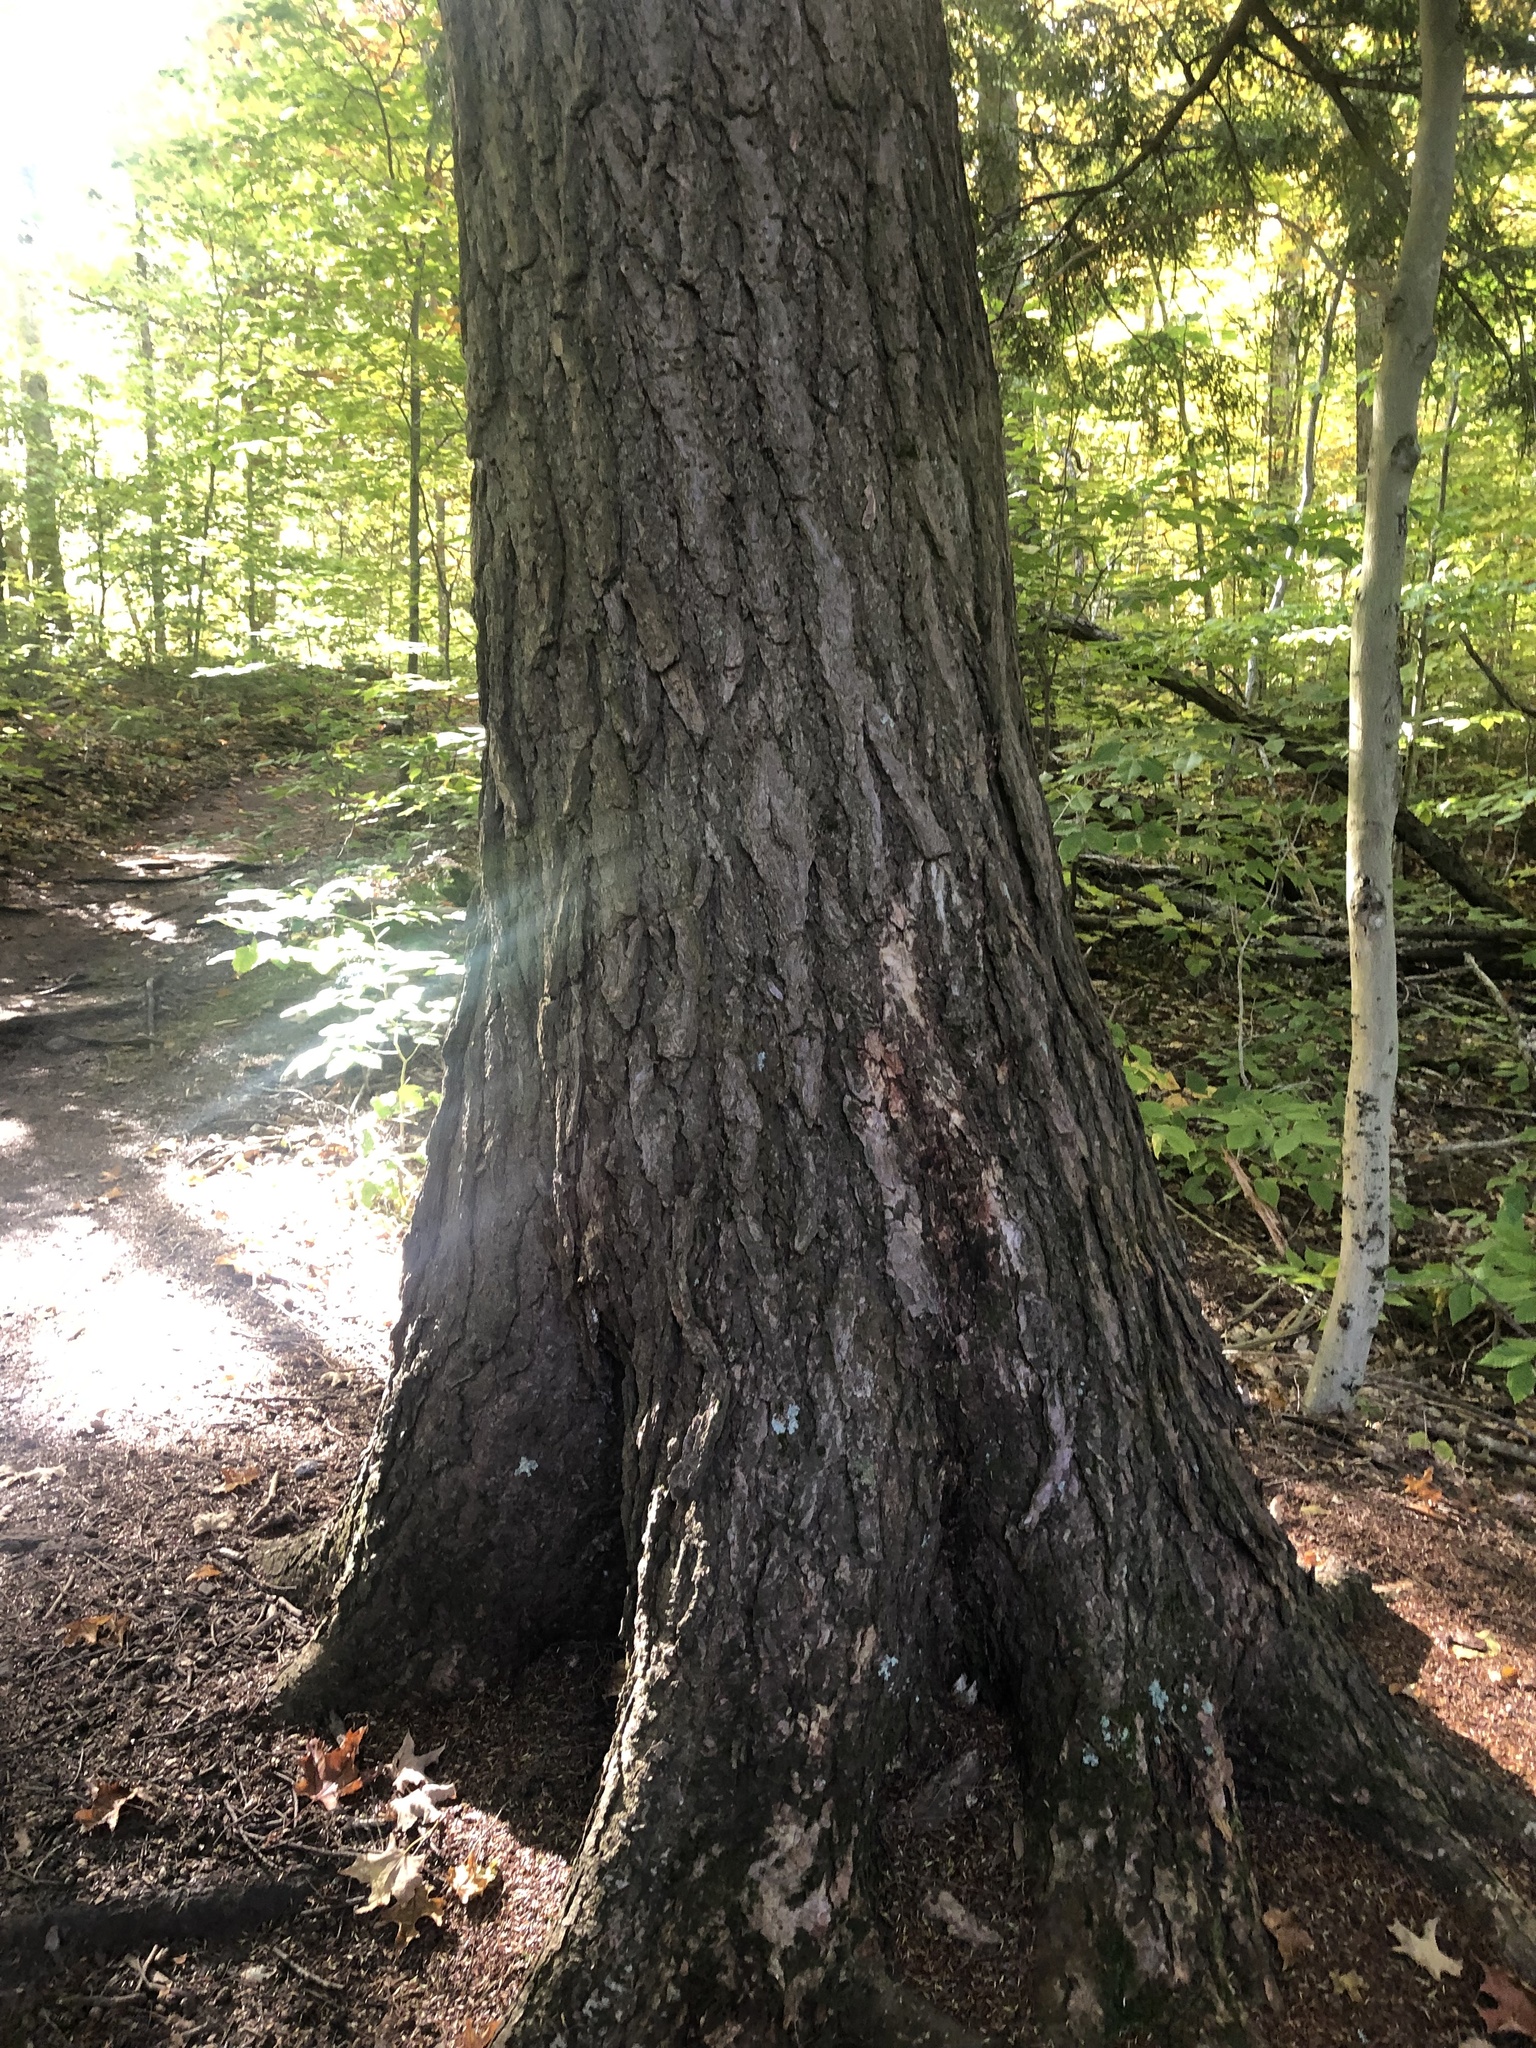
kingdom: Plantae
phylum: Tracheophyta
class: Pinopsida
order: Pinales
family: Pinaceae
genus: Tsuga
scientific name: Tsuga canadensis
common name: Eastern hemlock
